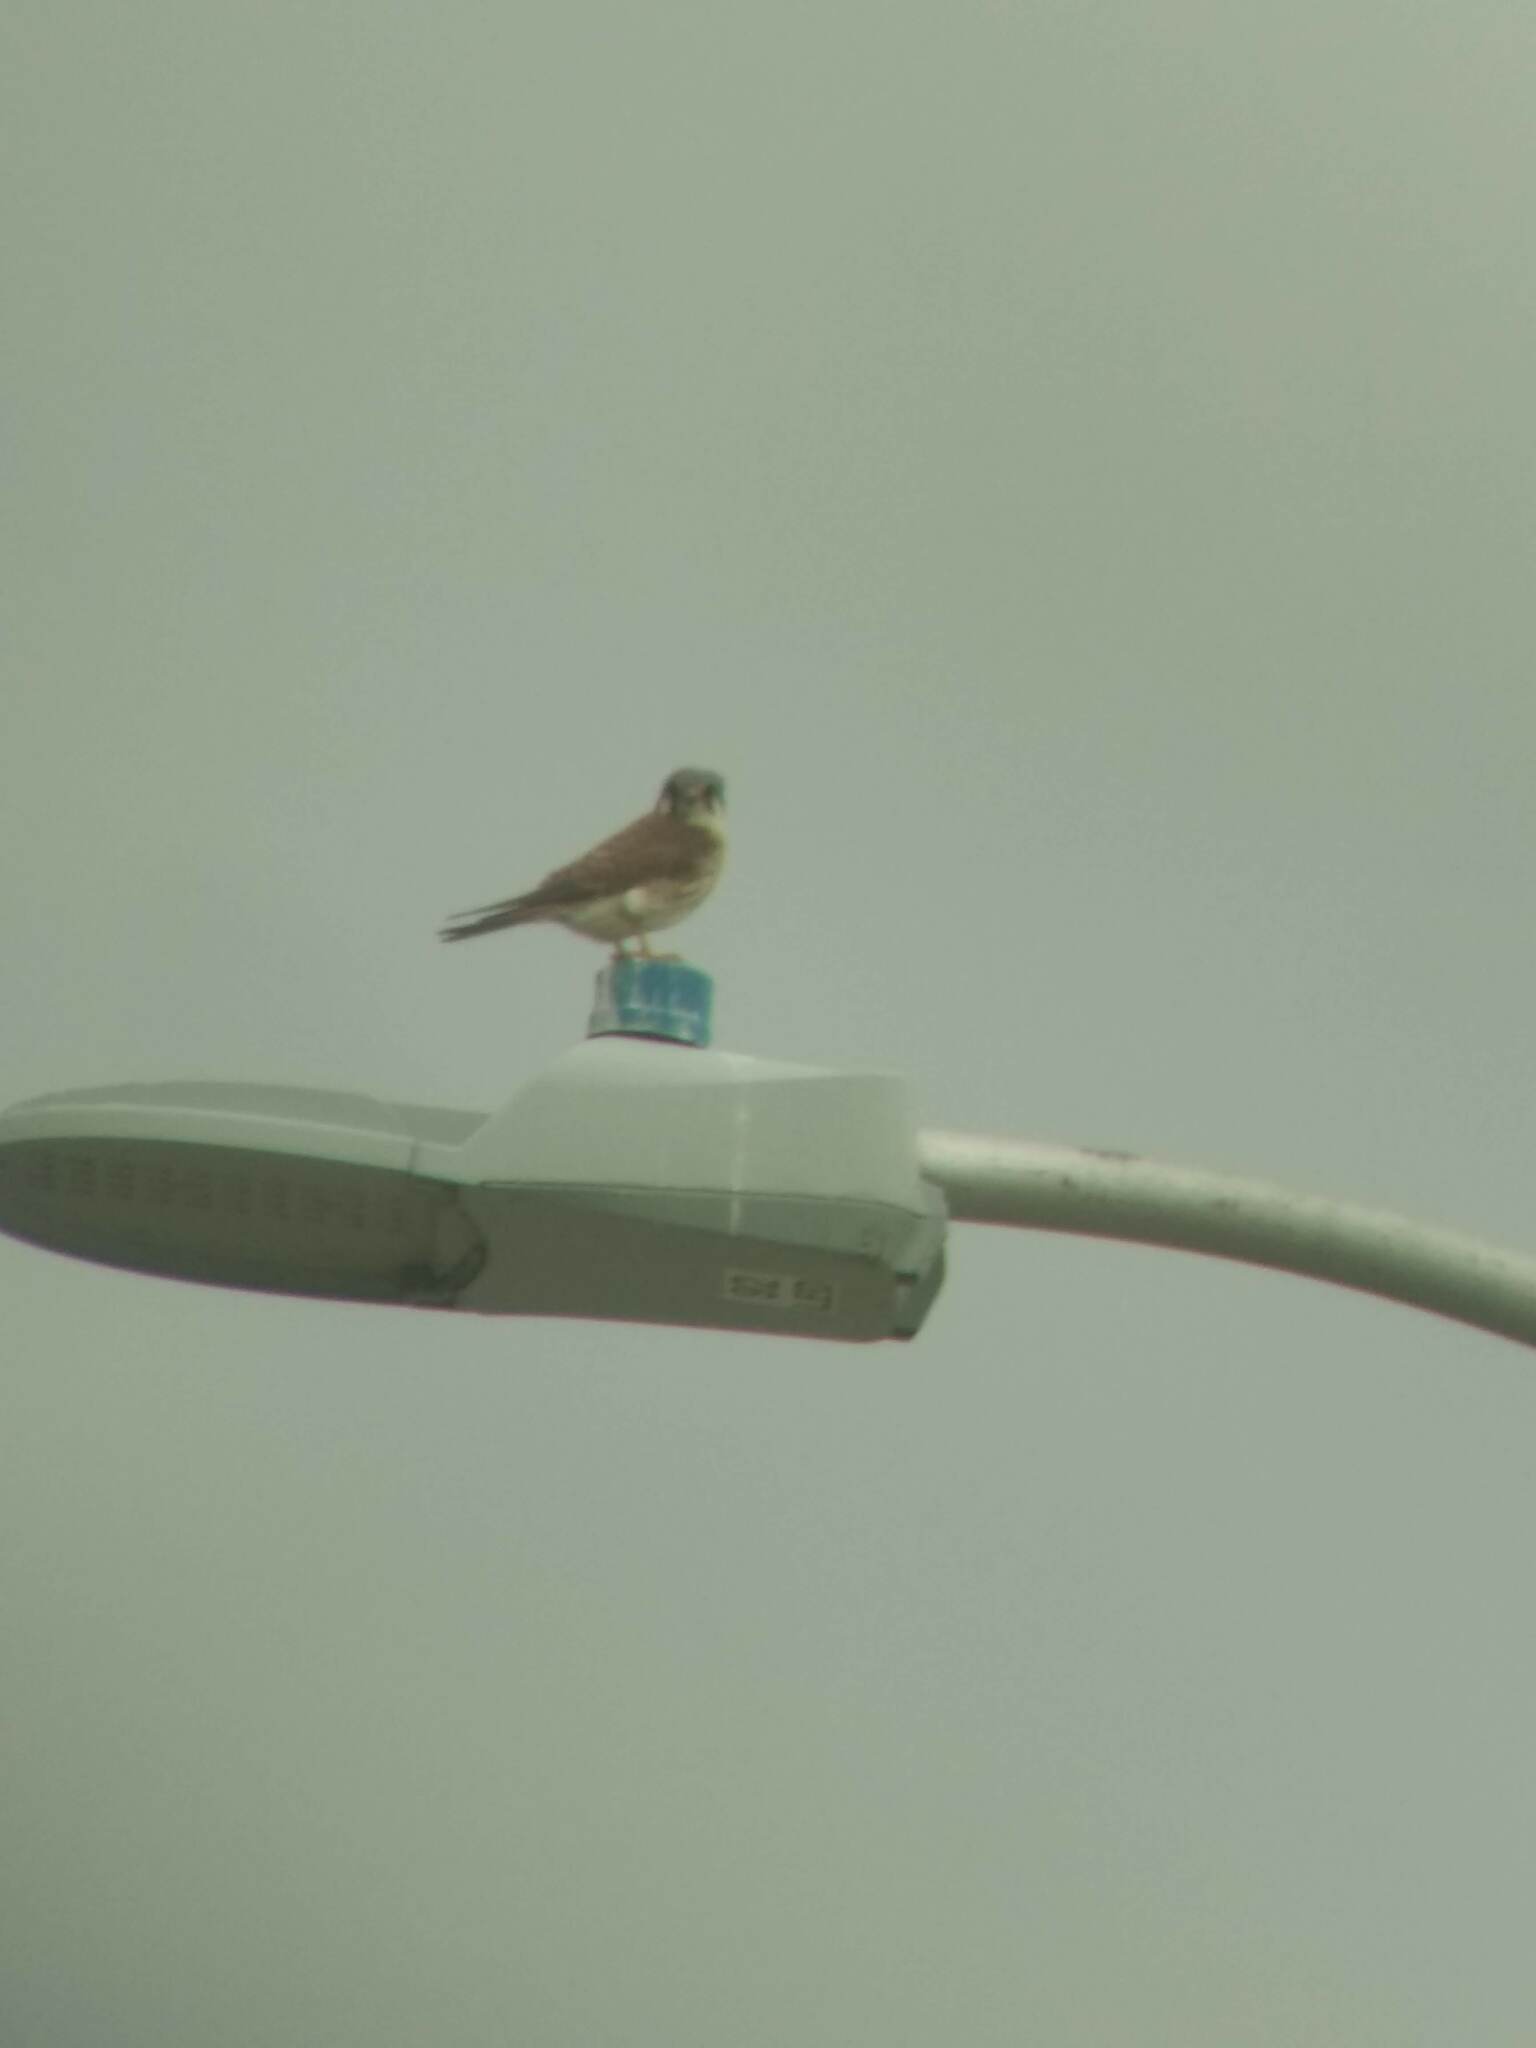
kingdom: Animalia
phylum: Chordata
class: Aves
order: Falconiformes
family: Falconidae
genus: Falco
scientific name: Falco sparverius
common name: American kestrel
